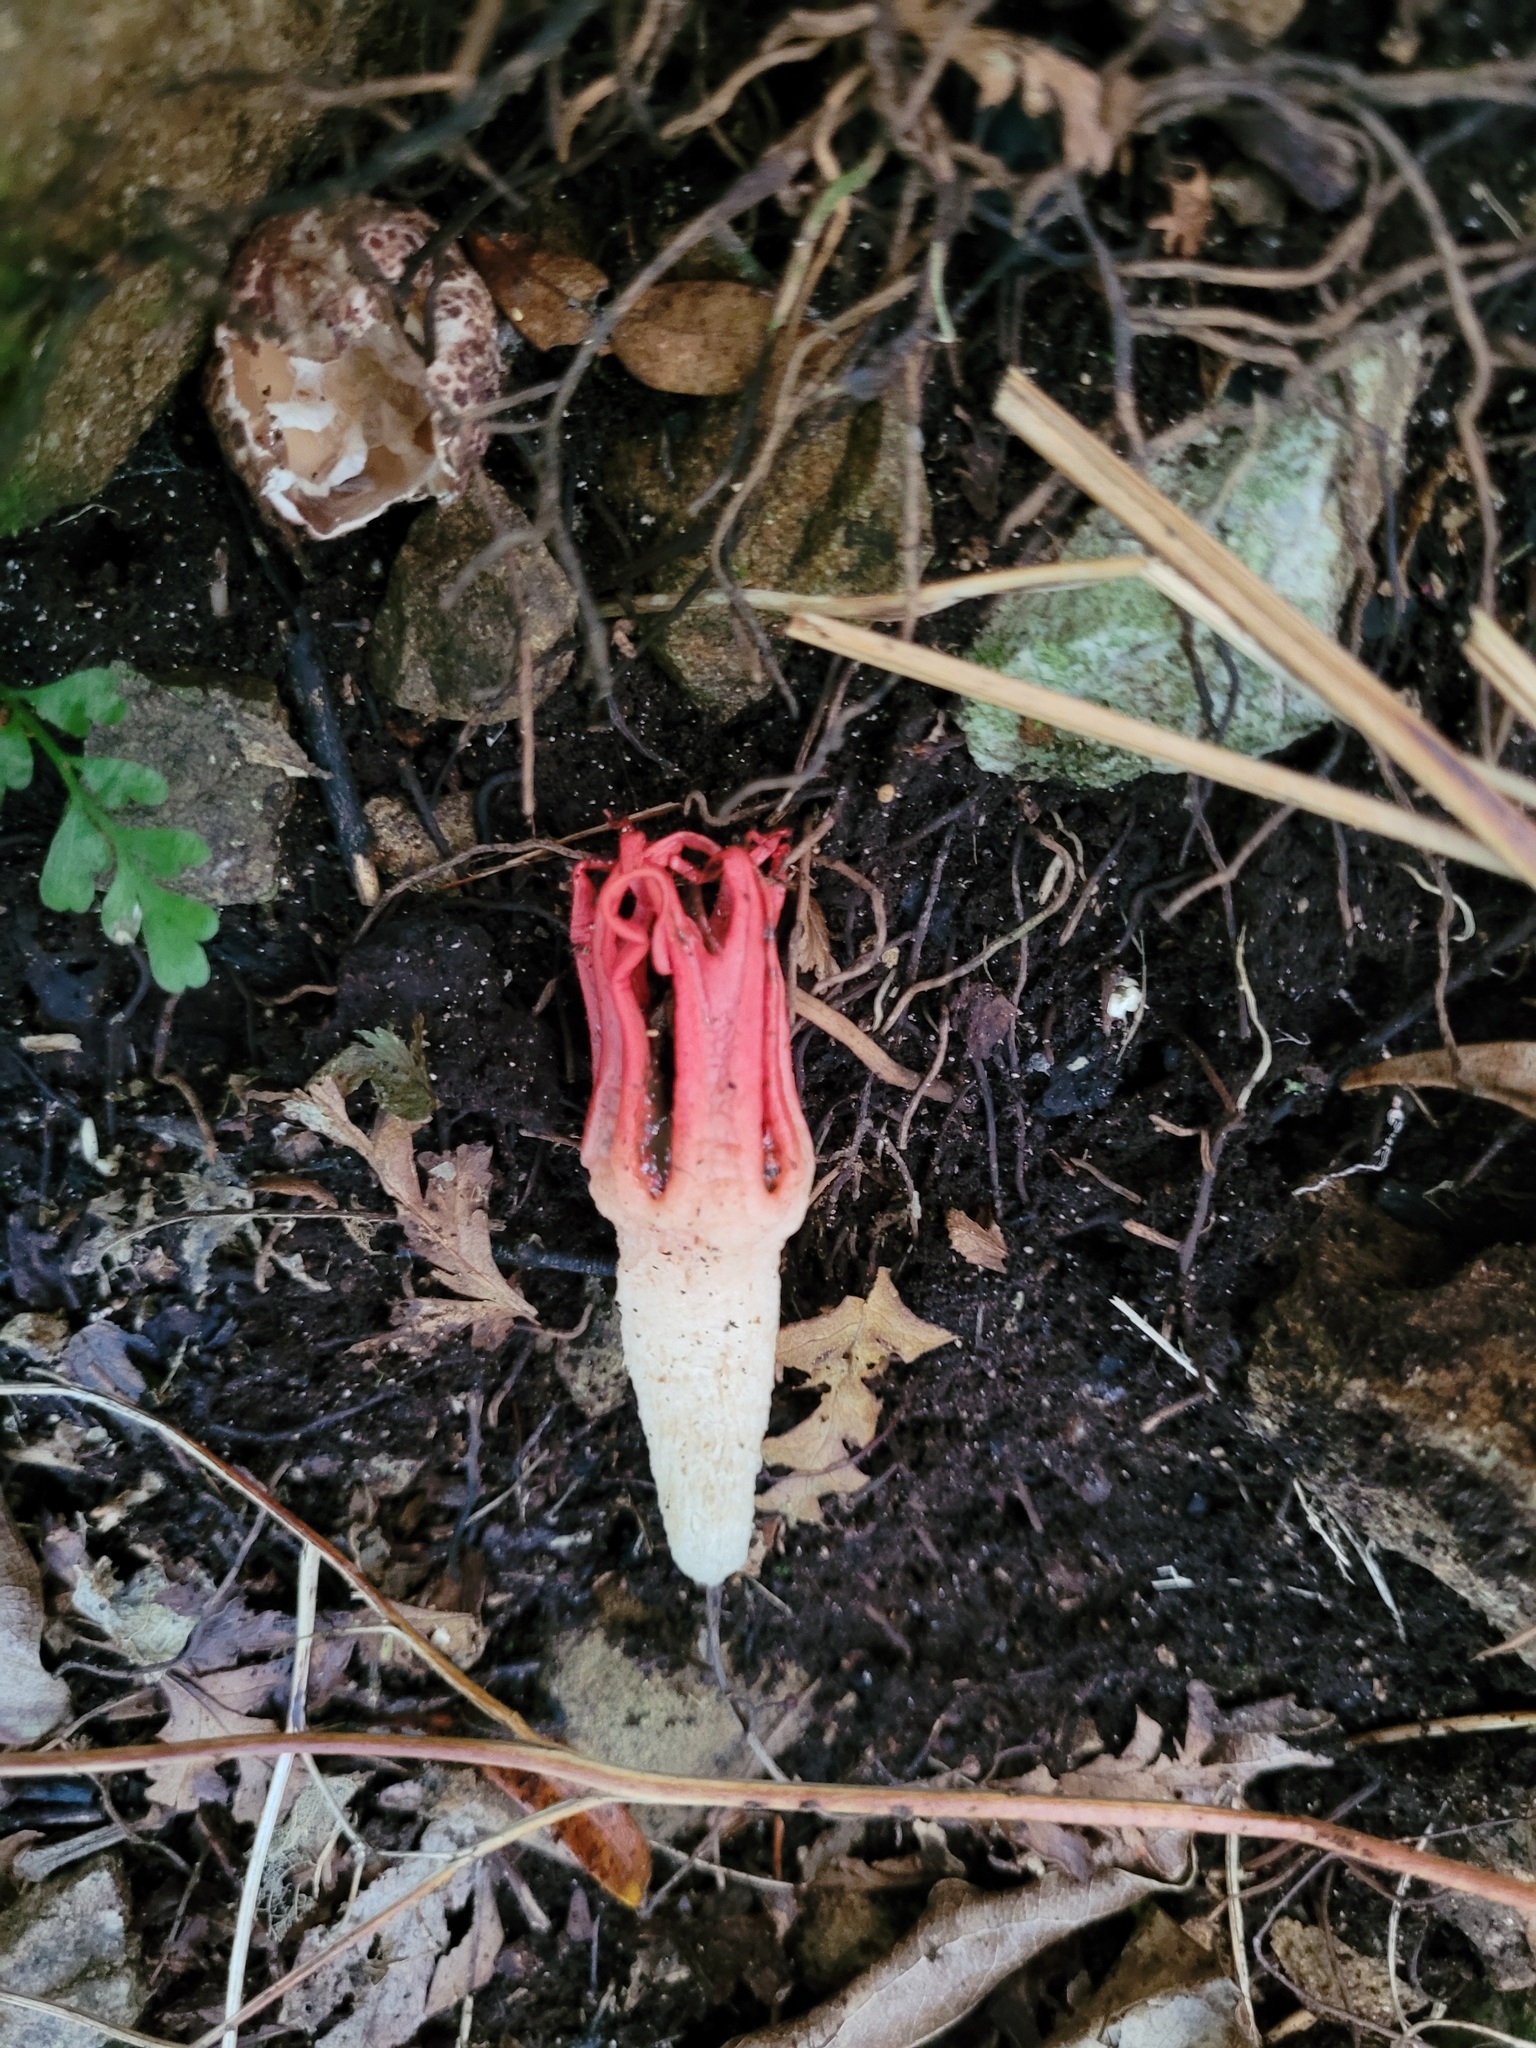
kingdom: Fungi
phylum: Basidiomycota
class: Agaricomycetes
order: Phallales
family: Phallaceae
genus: Clathrus
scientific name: Clathrus archeri
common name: Devil's fingers
